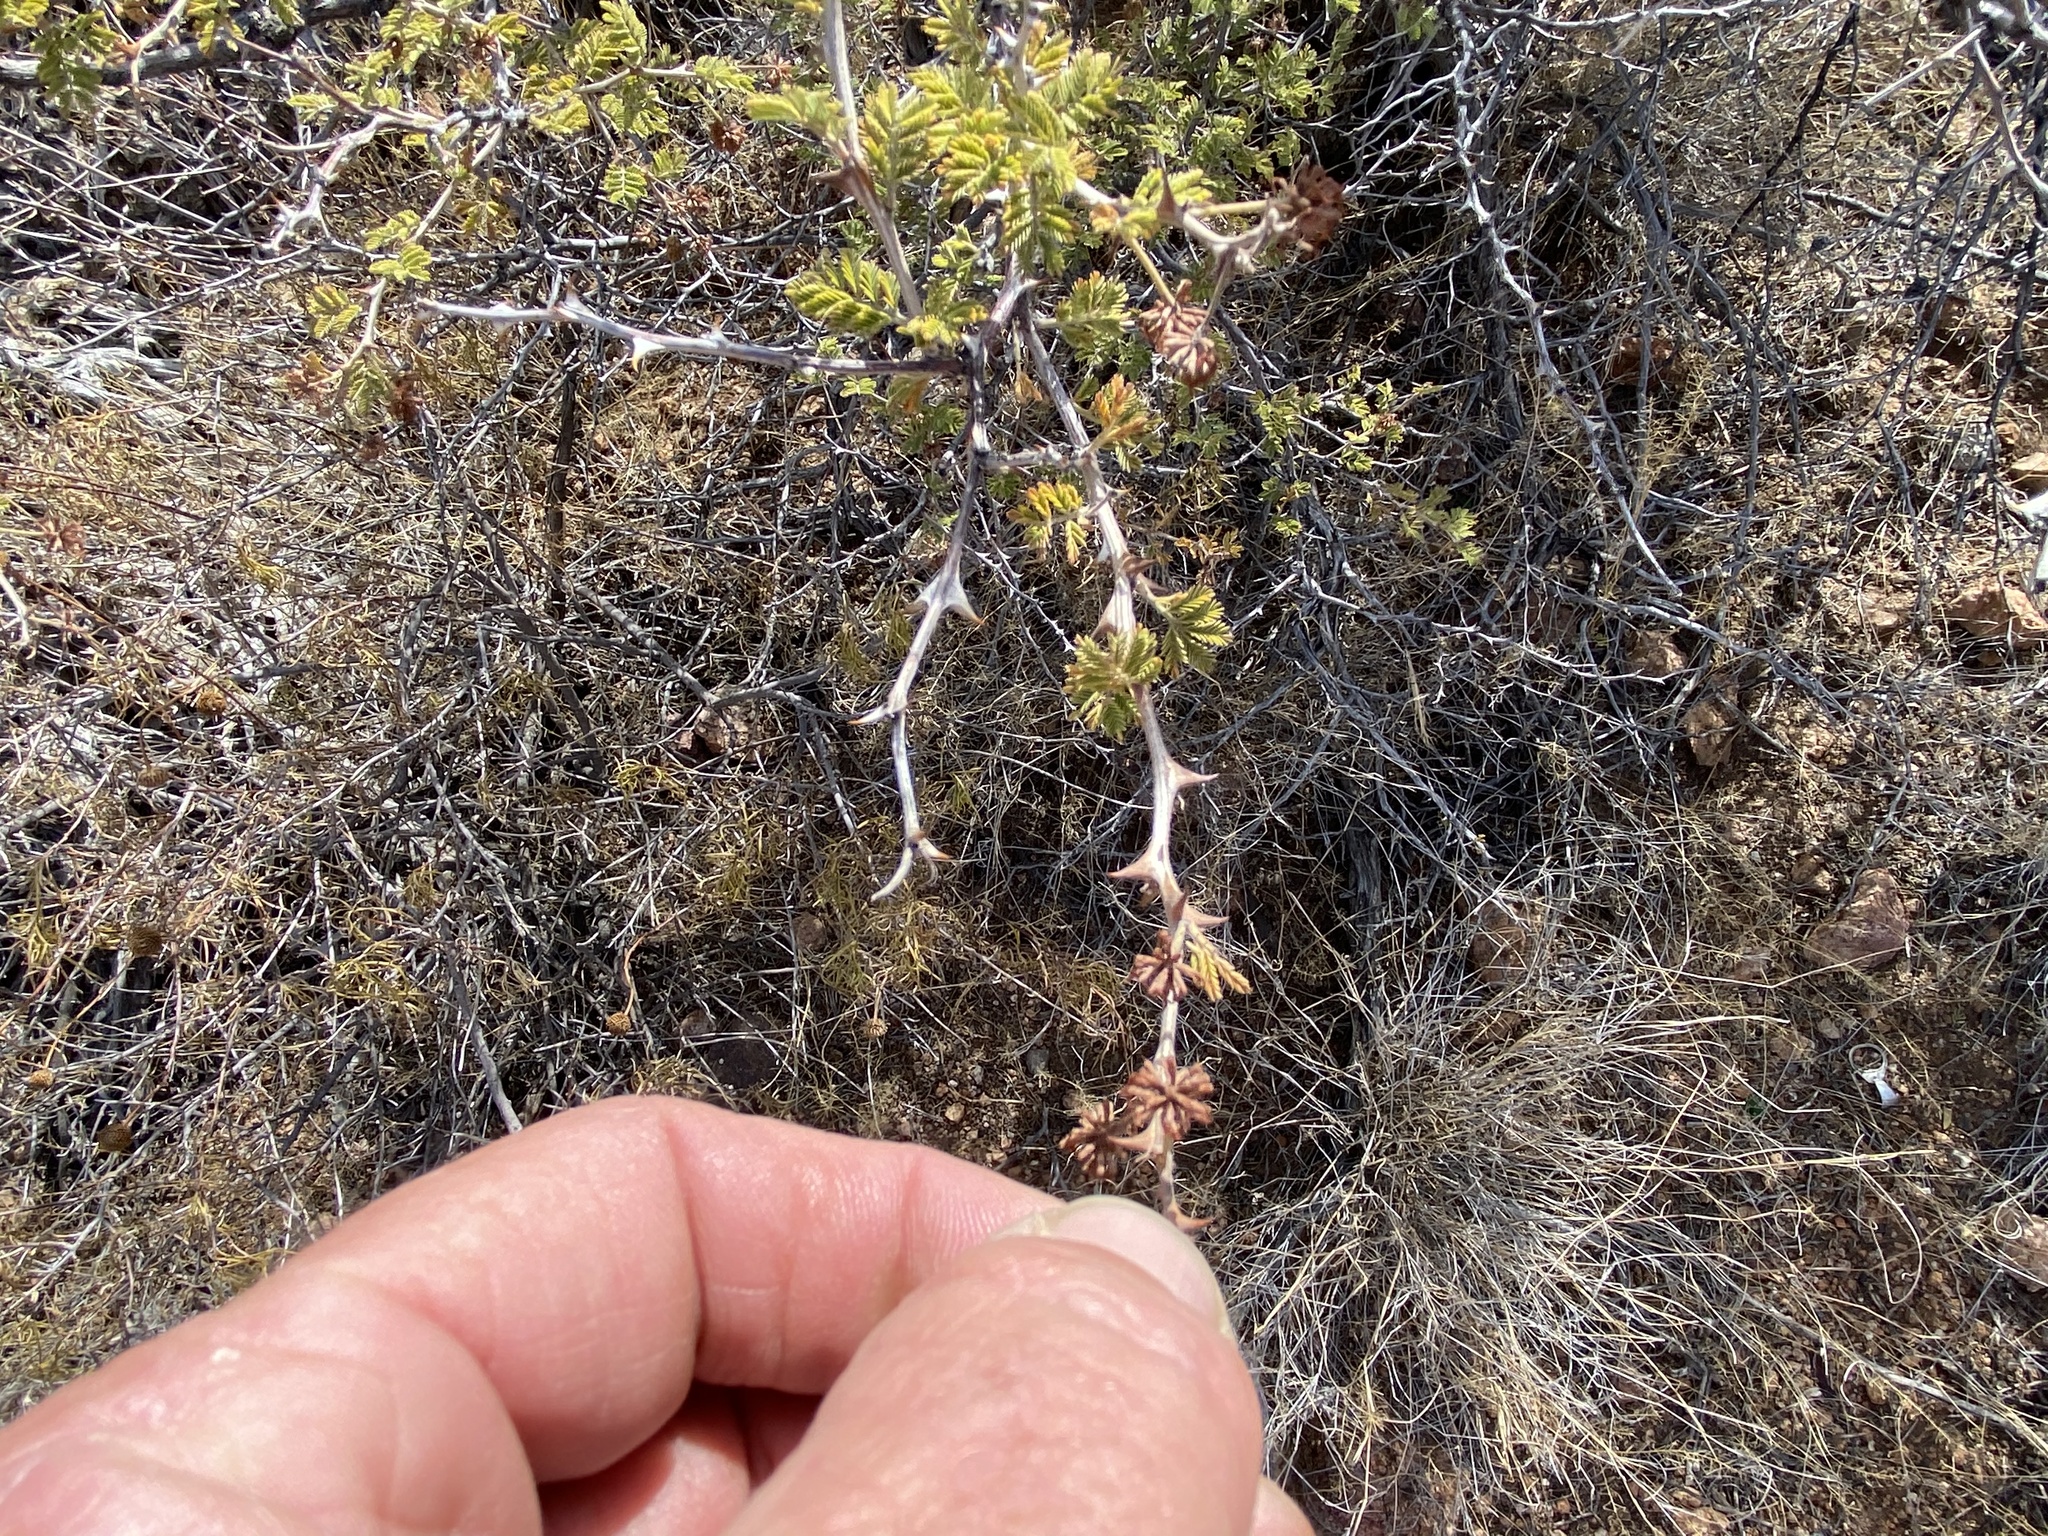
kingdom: Plantae
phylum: Tracheophyta
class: Magnoliopsida
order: Fabales
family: Fabaceae
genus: Mimosa
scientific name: Mimosa aculeaticarpa
